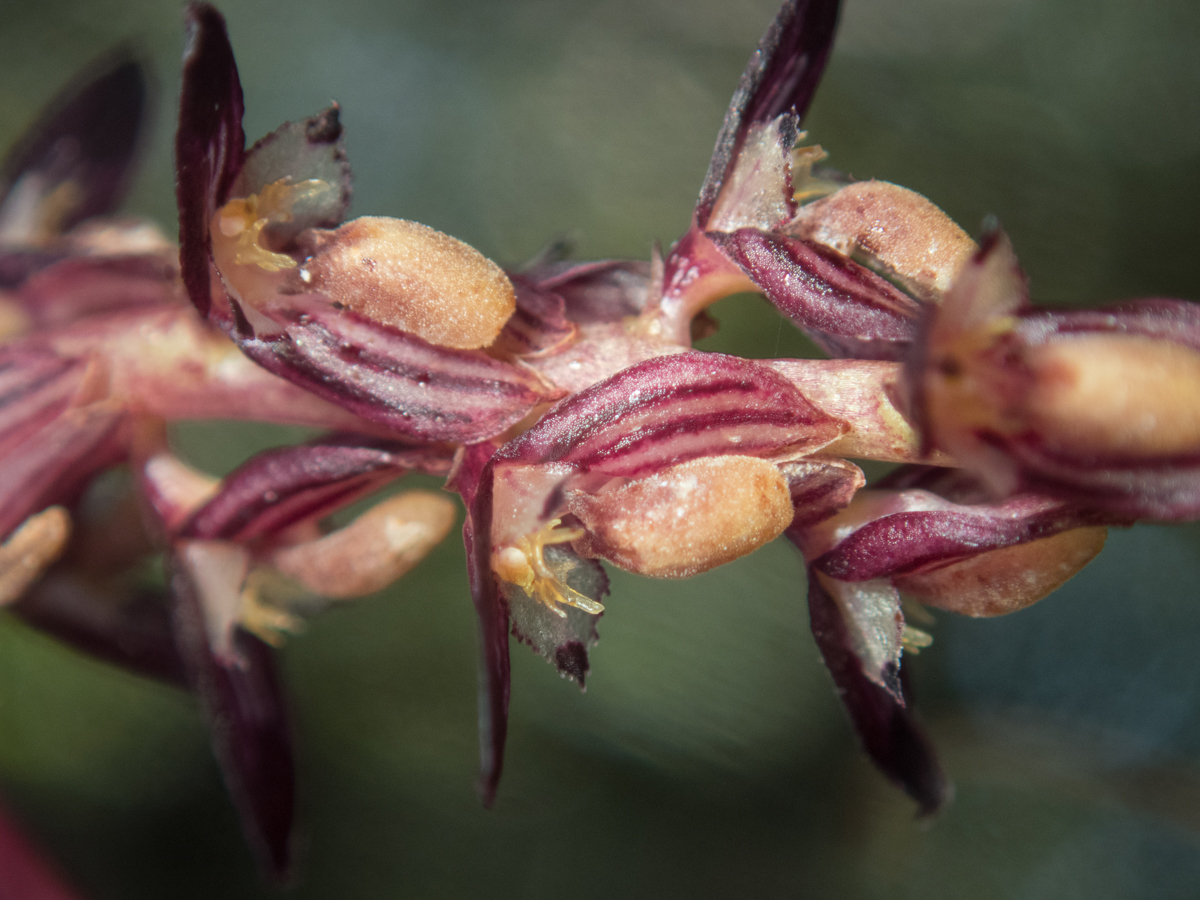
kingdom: Plantae
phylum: Tracheophyta
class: Liliopsida
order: Asparagales
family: Orchidaceae
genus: Bulbophyllum
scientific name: Bulbophyllum alcicorne
